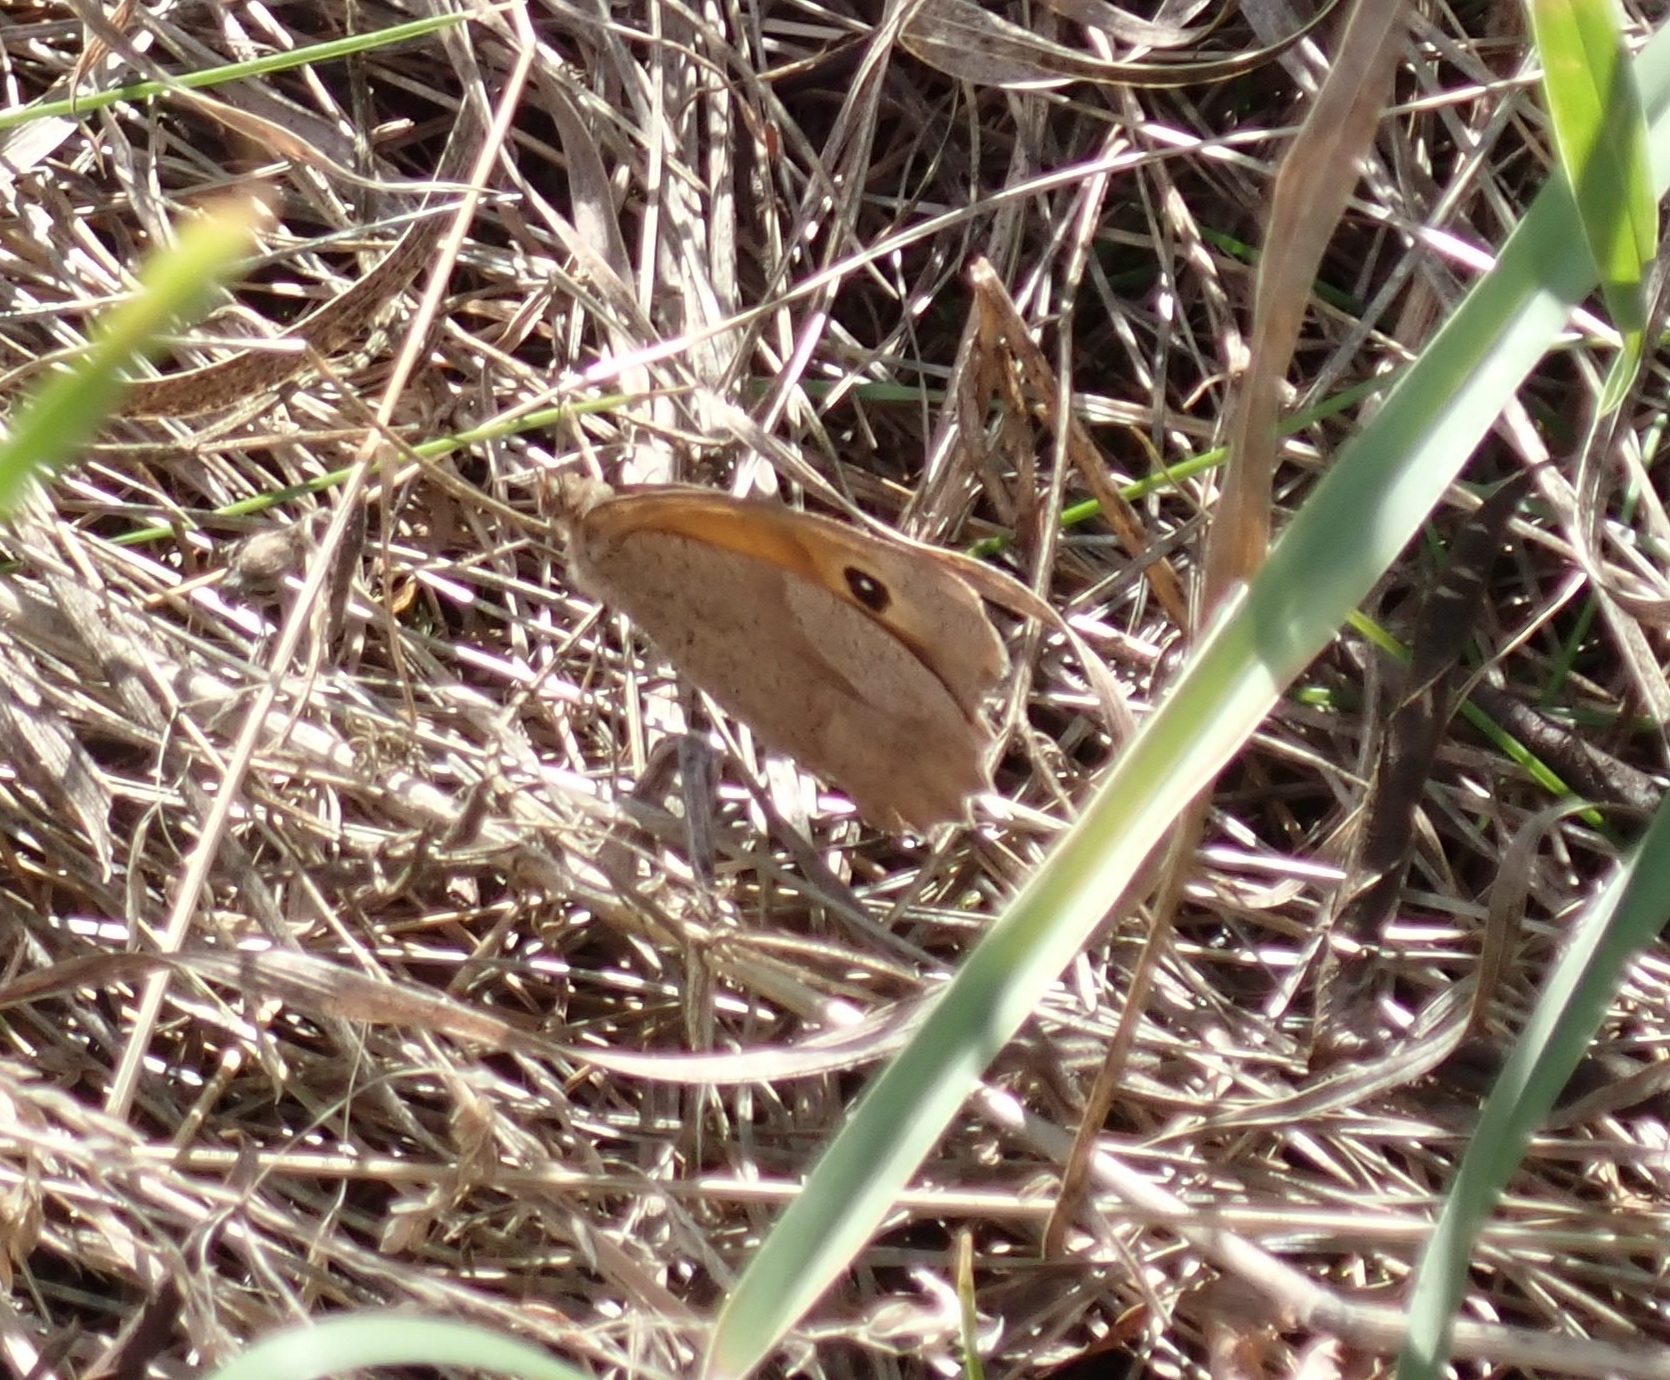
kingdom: Animalia
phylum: Arthropoda
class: Insecta
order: Lepidoptera
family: Nymphalidae
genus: Maniola
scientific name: Maniola jurtina
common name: Meadow brown
